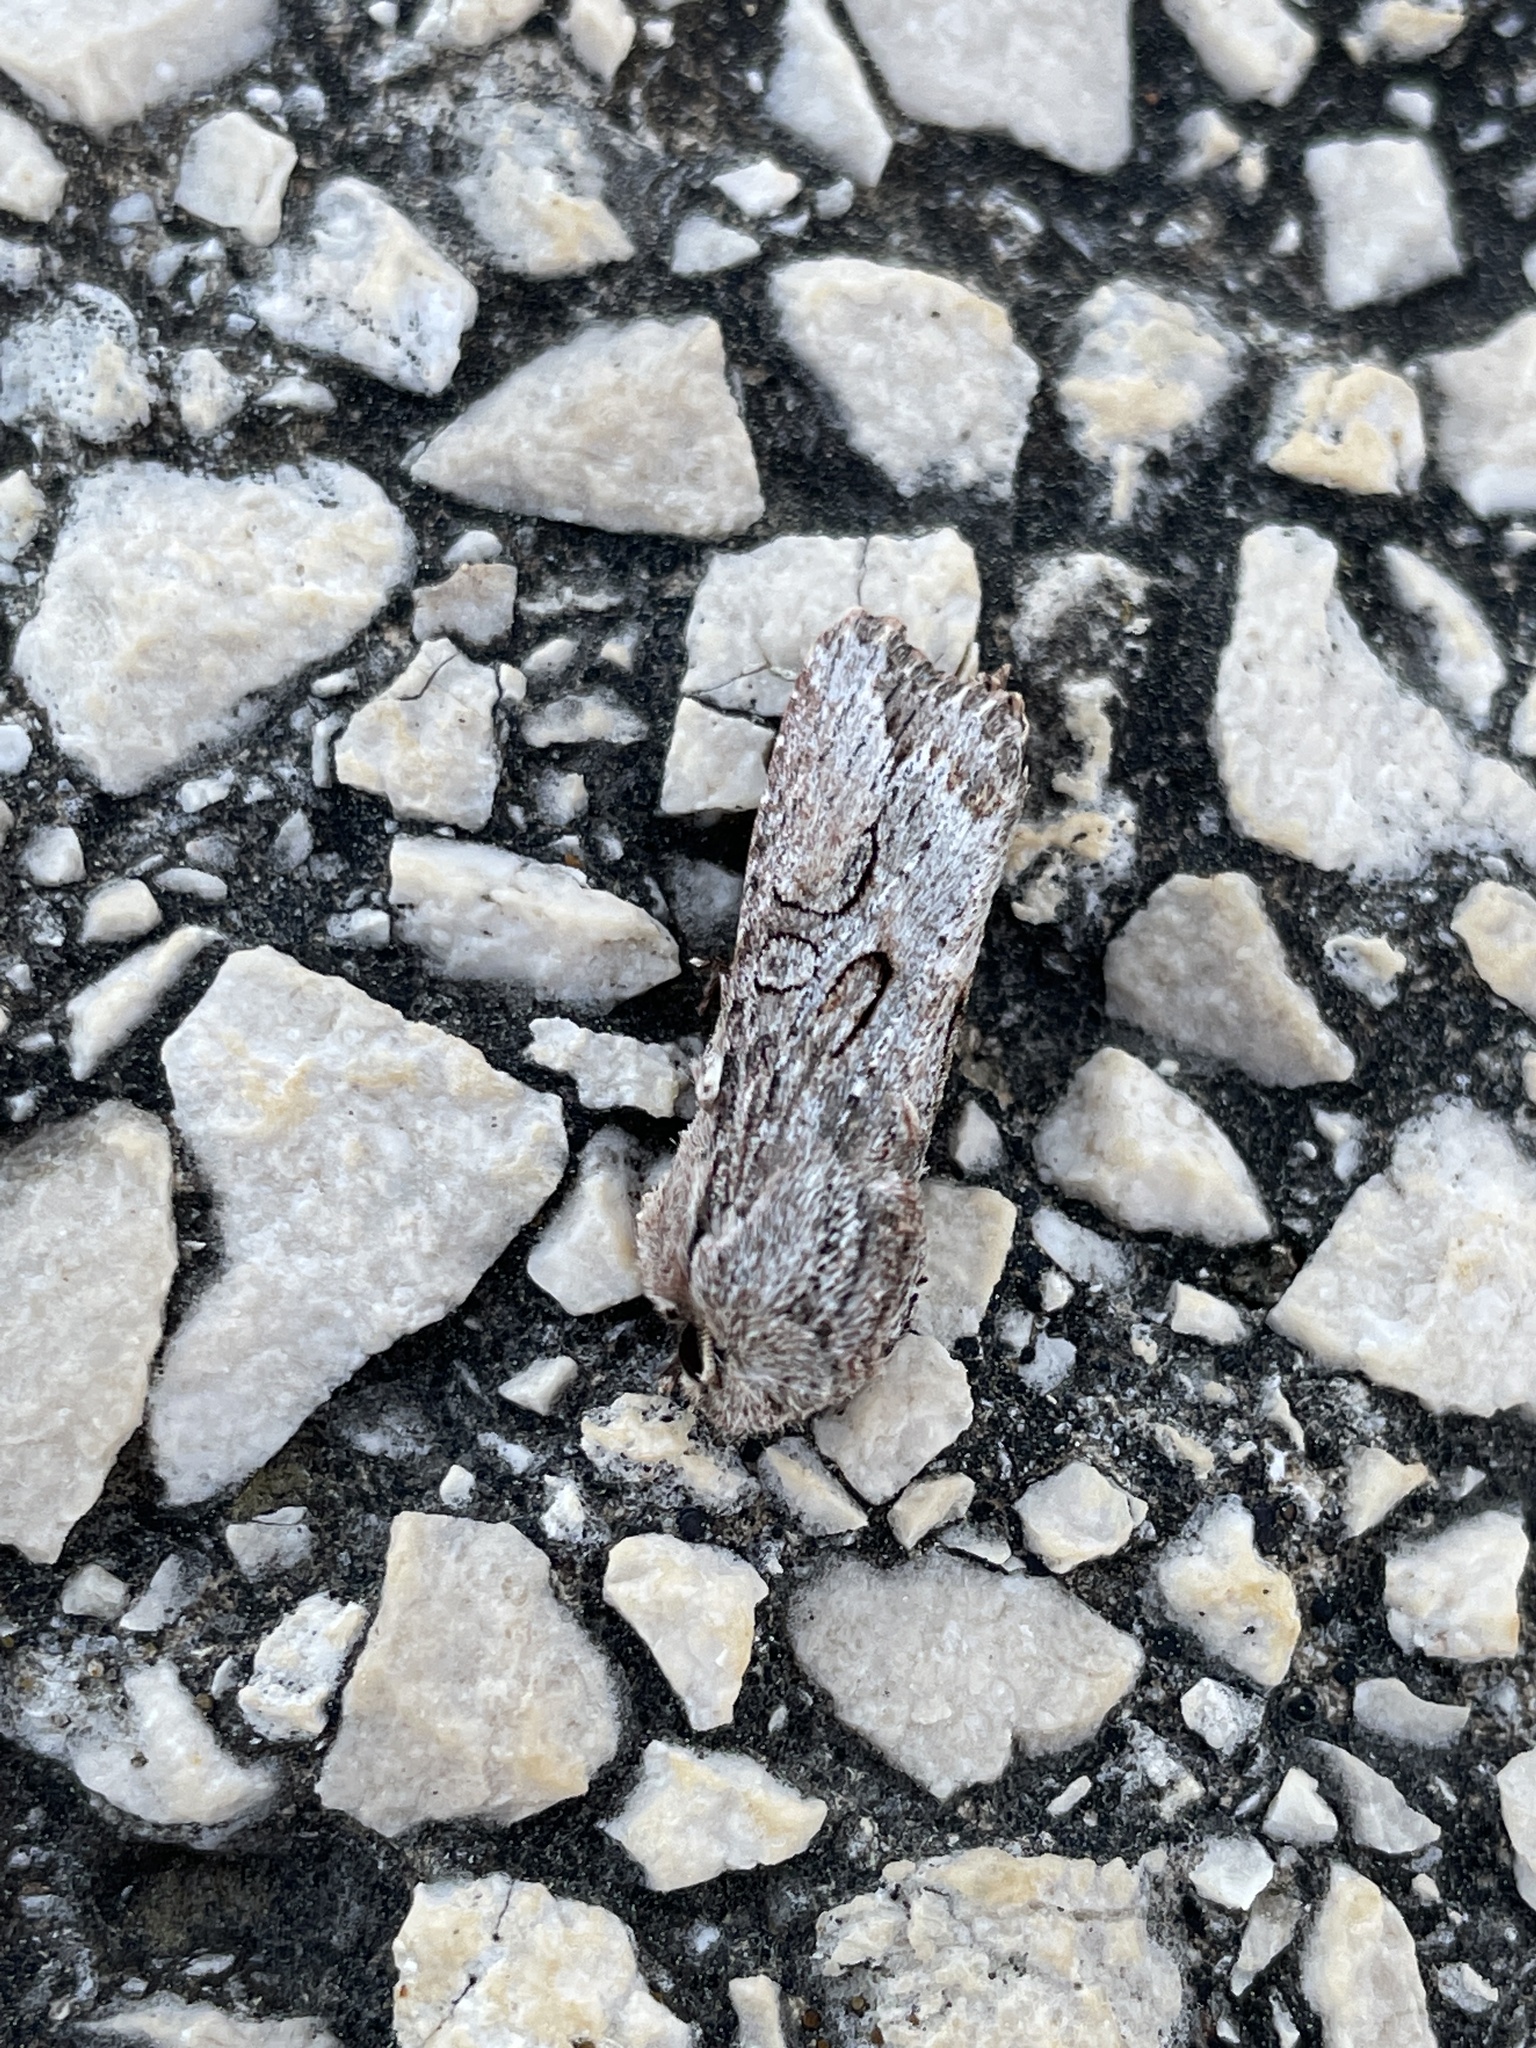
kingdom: Animalia
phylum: Arthropoda
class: Insecta
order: Lepidoptera
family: Noctuidae
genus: Egira
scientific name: Egira conspicillaris
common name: Silver cloud
